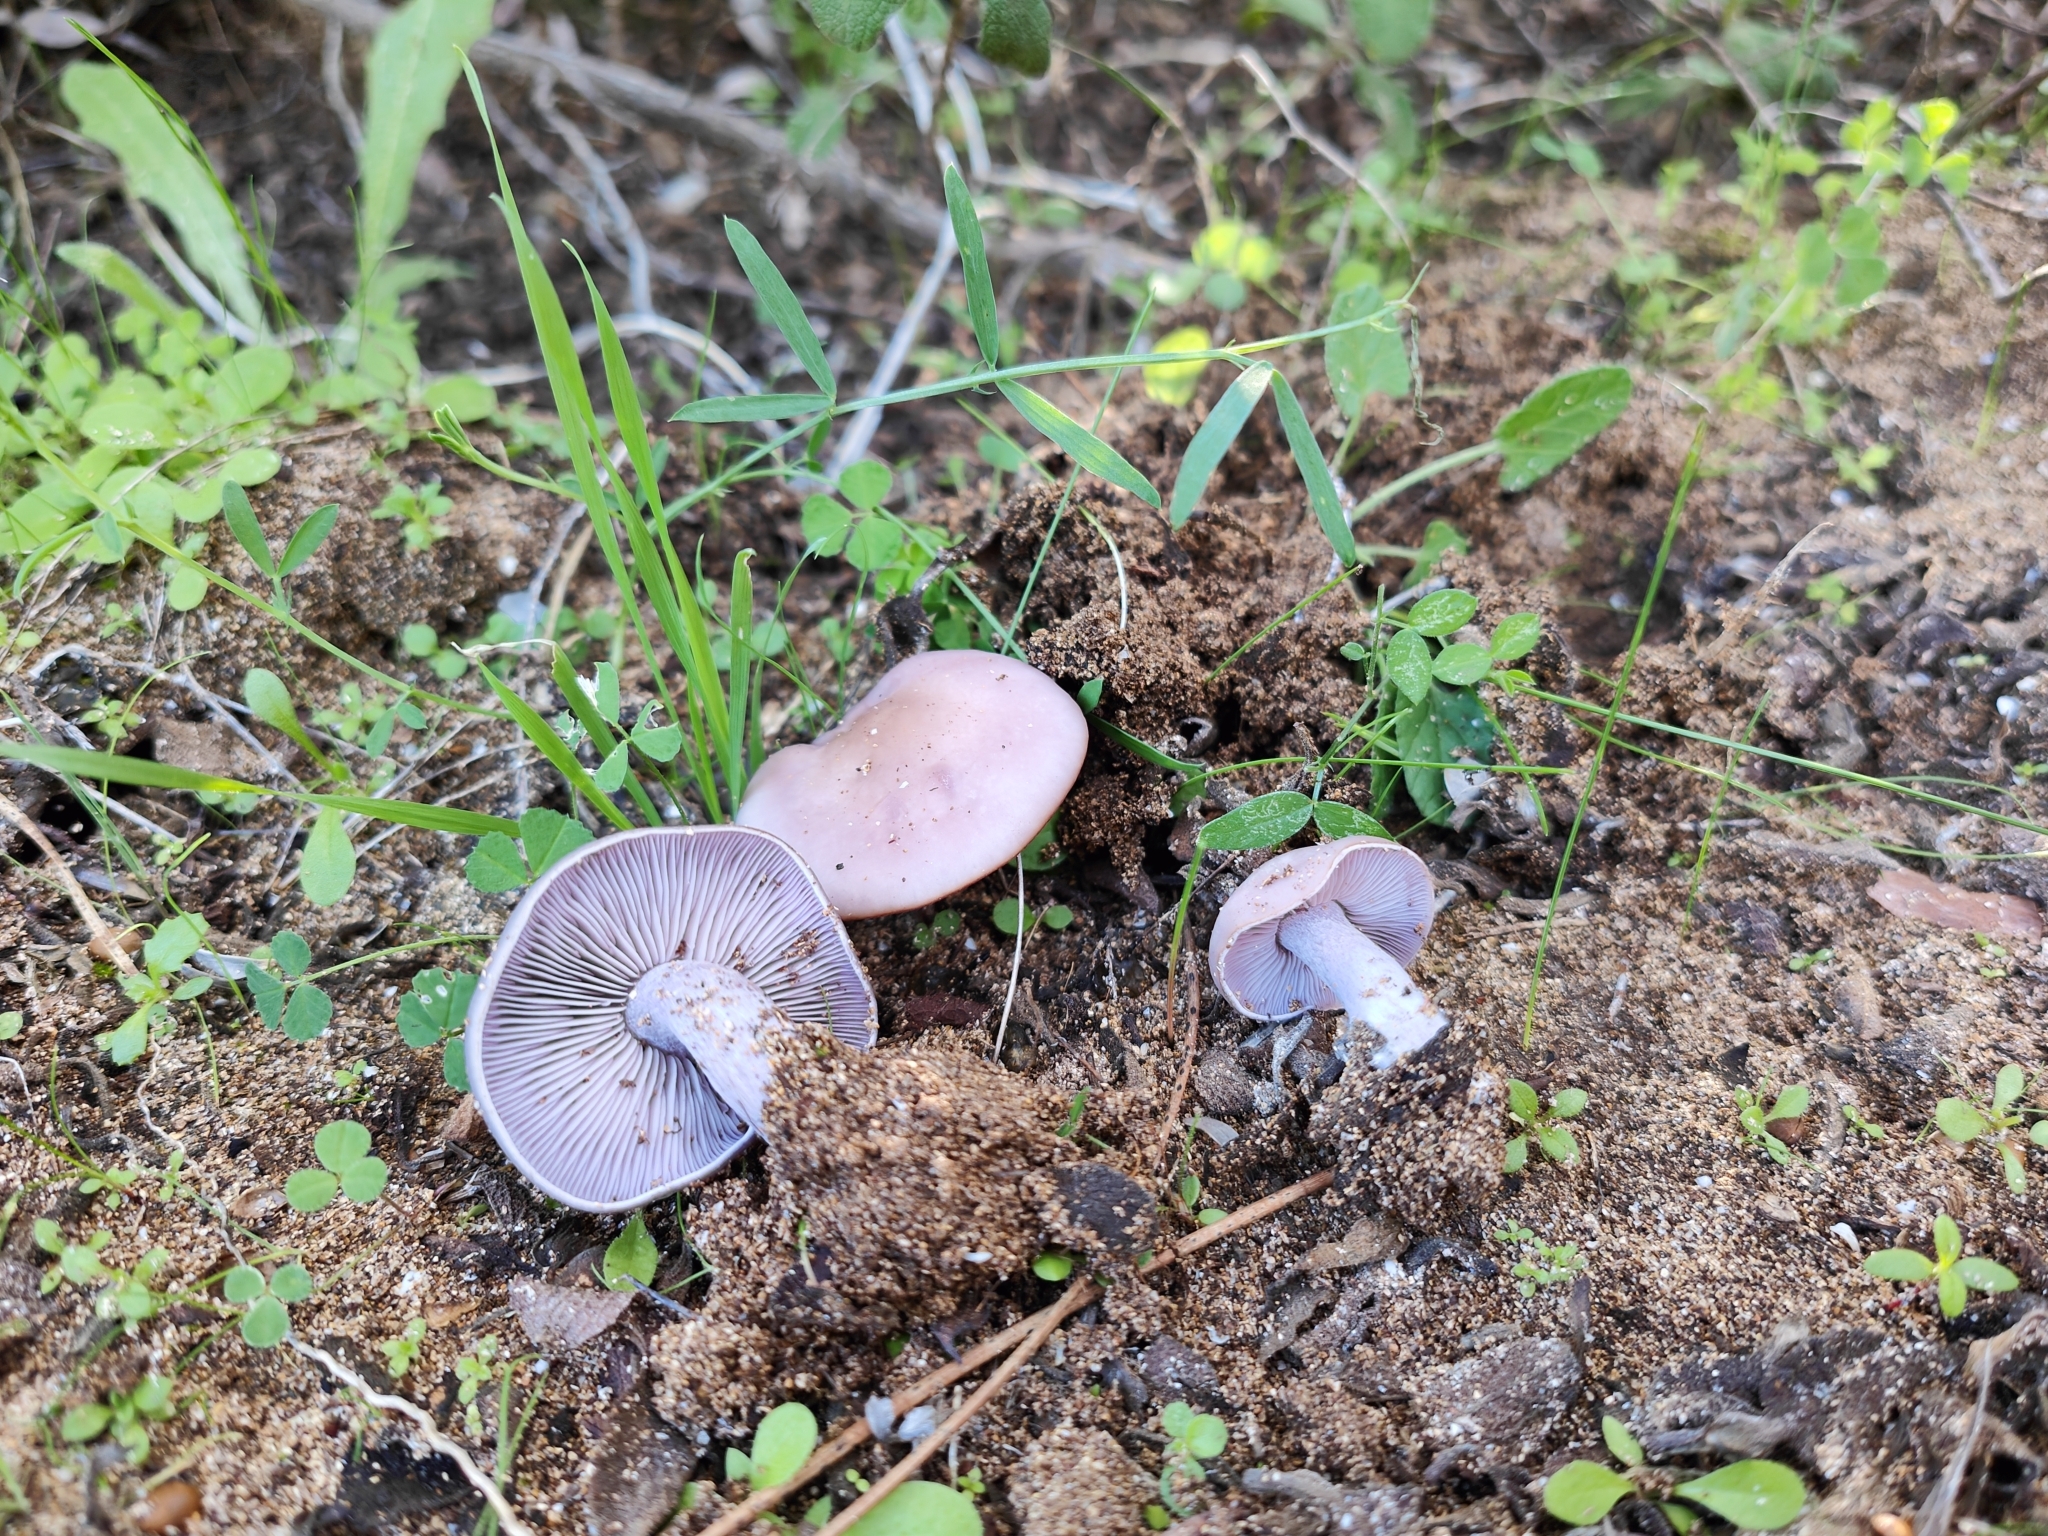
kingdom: Fungi
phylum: Basidiomycota
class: Agaricomycetes
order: Agaricales
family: Tricholomataceae
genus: Collybia
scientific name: Collybia
